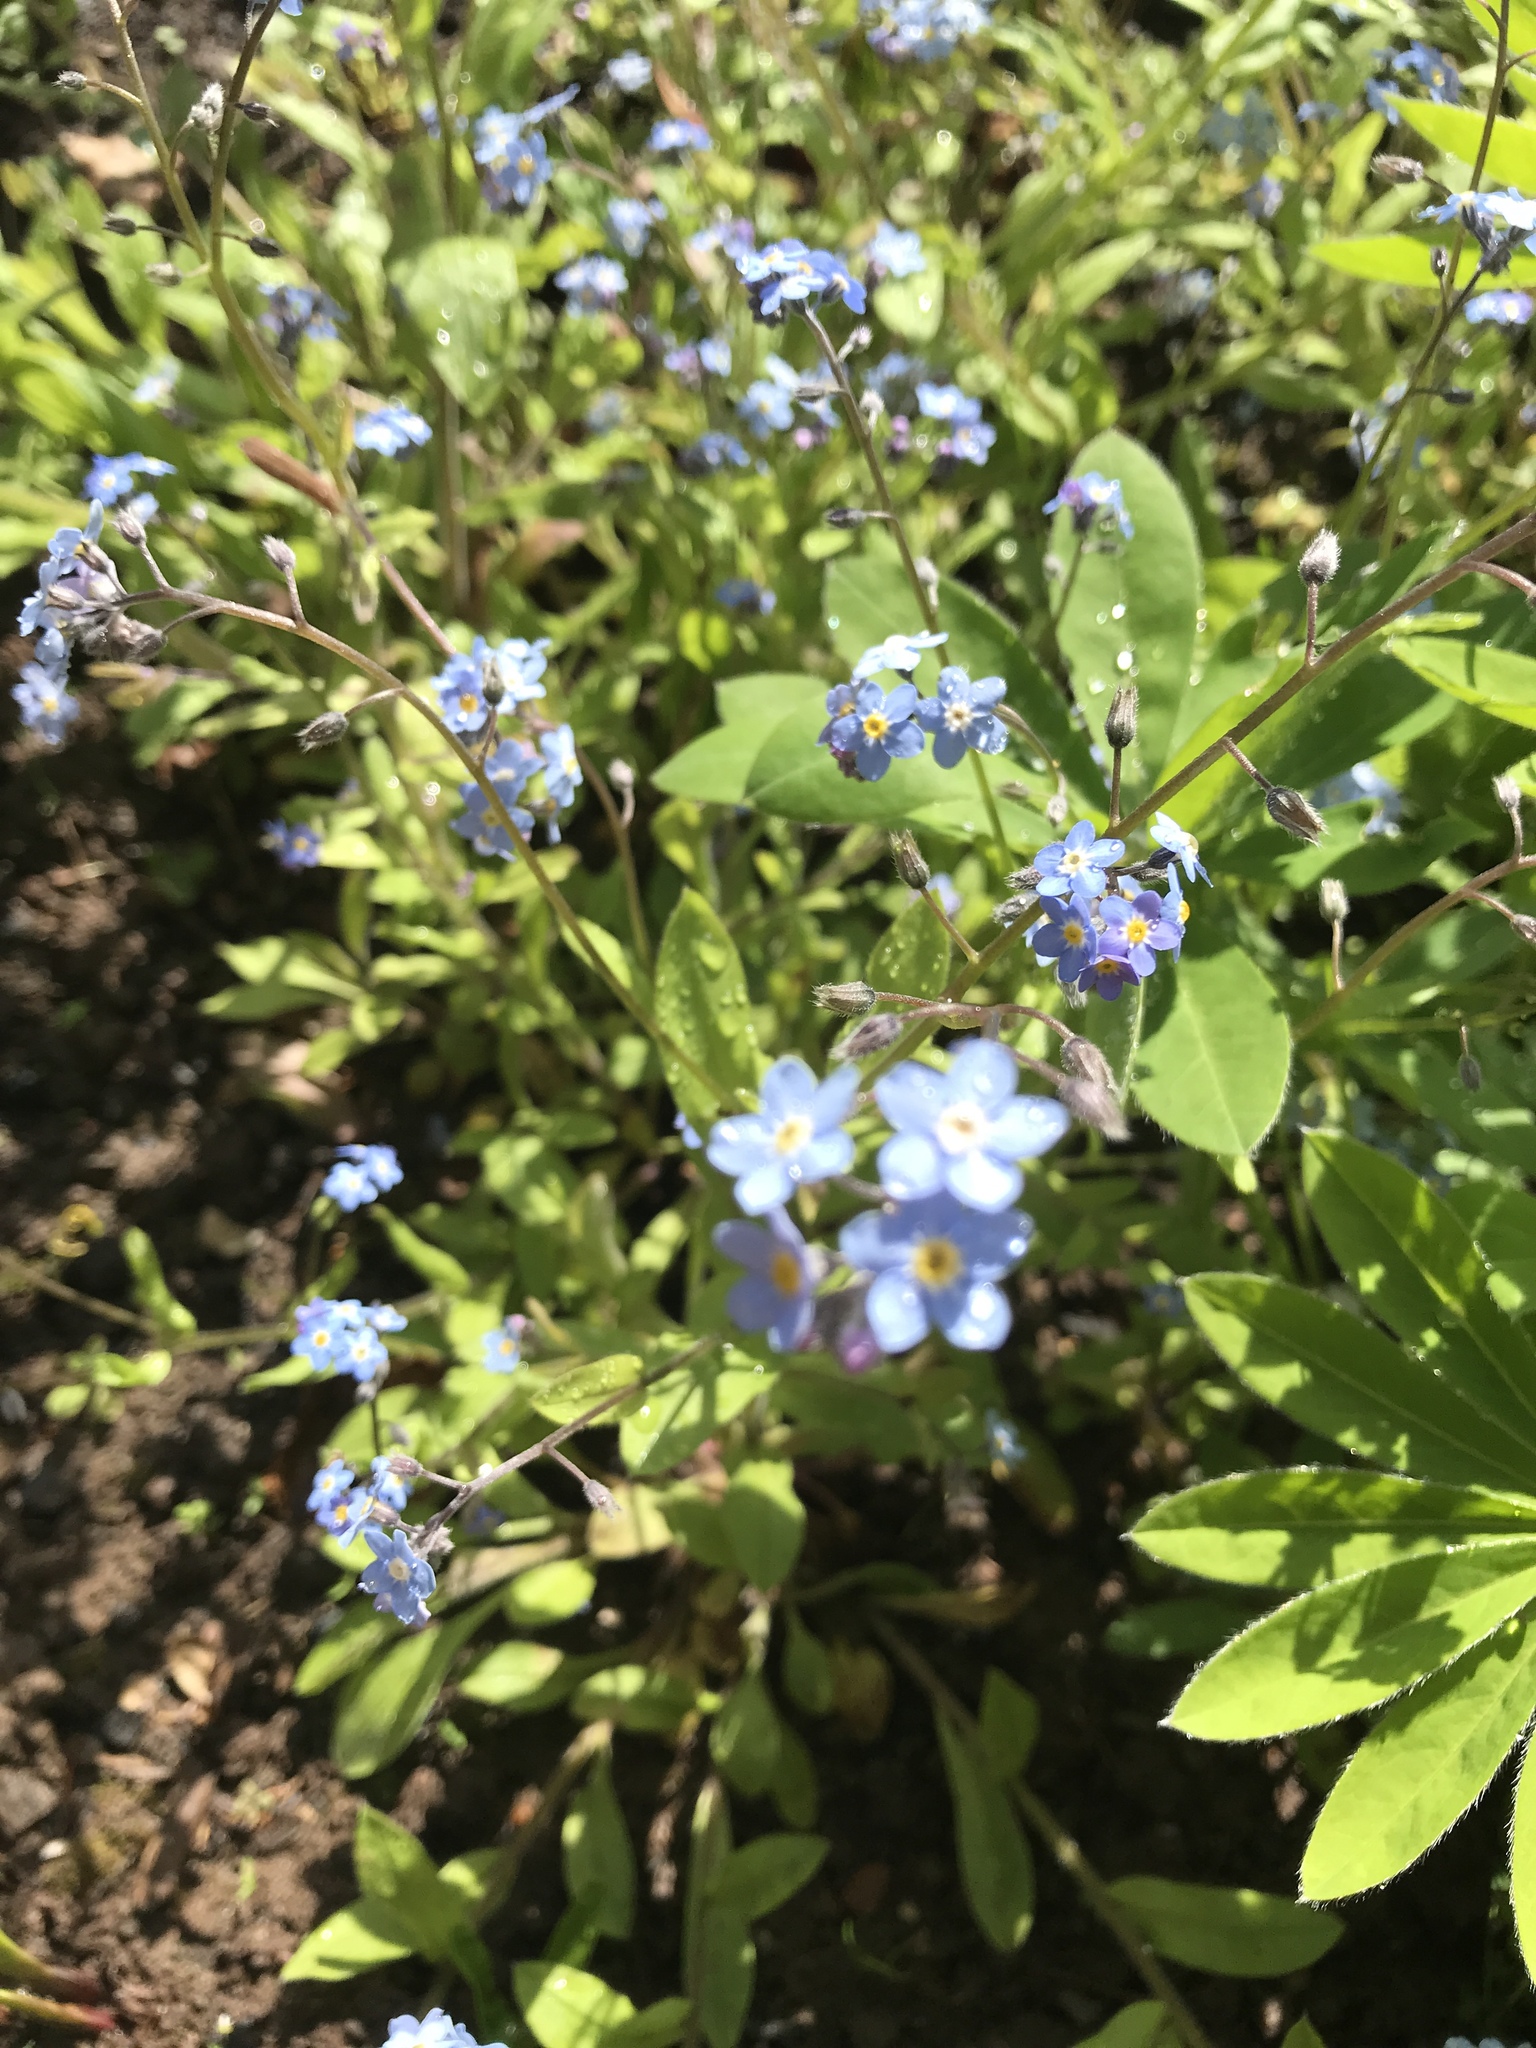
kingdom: Plantae
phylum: Tracheophyta
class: Magnoliopsida
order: Boraginales
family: Boraginaceae
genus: Myosotis
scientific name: Myosotis sylvatica
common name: Wood forget-me-not
